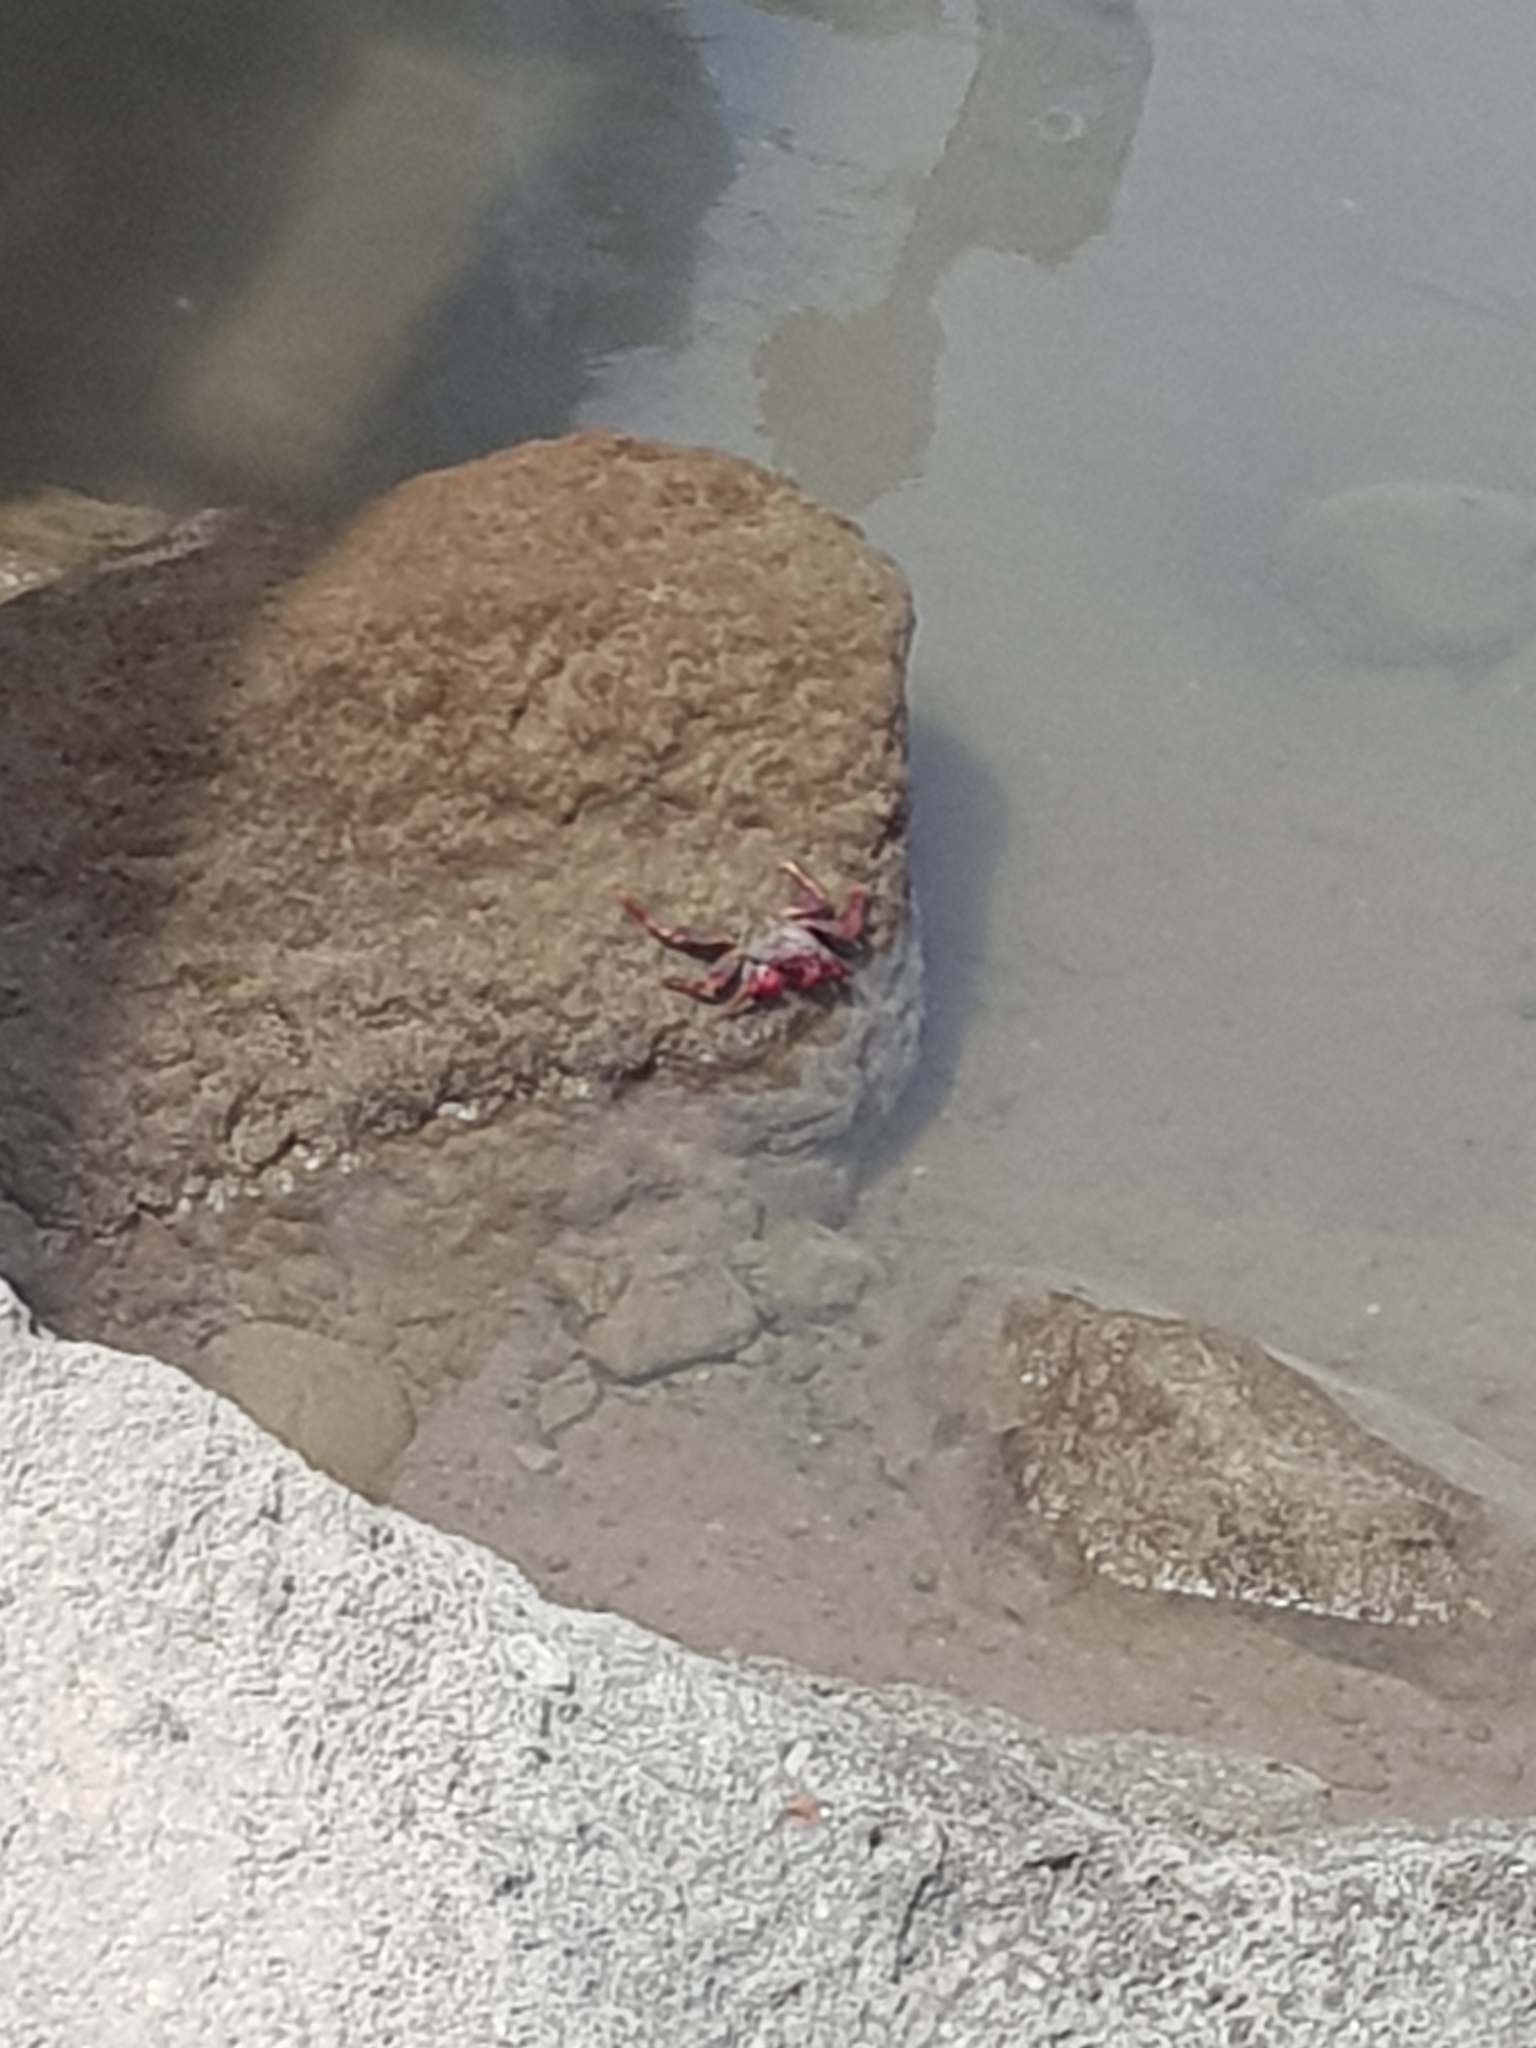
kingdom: Animalia
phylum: Arthropoda
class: Malacostraca
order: Decapoda
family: Grapsidae
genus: Grapsus
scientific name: Grapsus adscensionis
